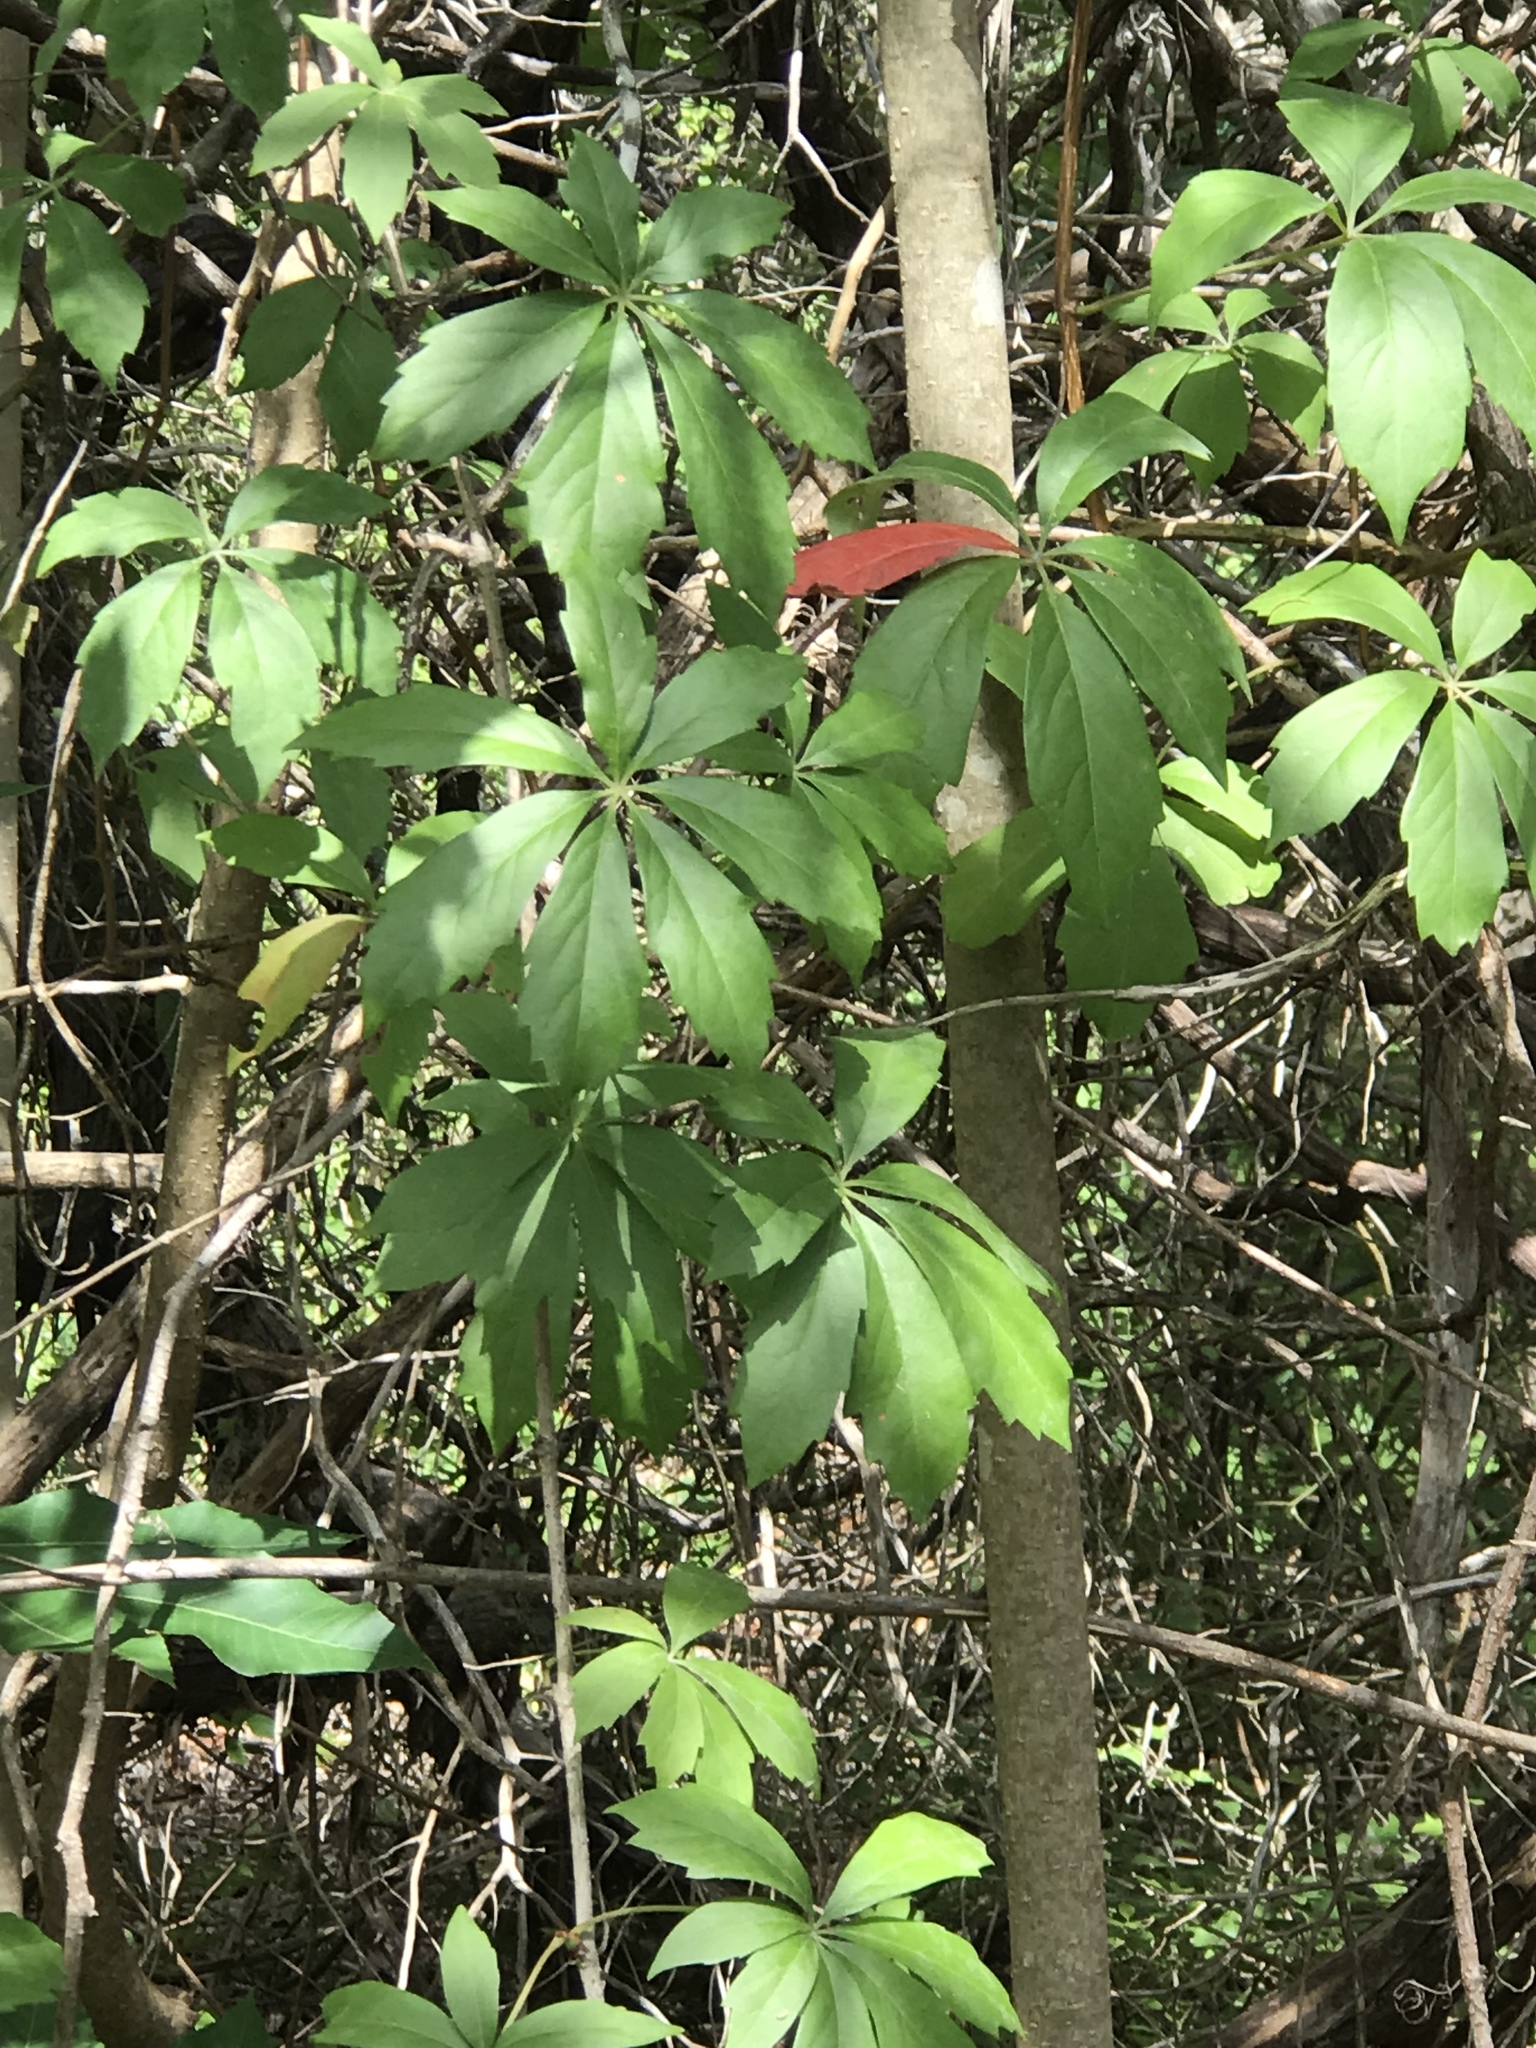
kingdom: Plantae
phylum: Tracheophyta
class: Magnoliopsida
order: Vitales
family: Vitaceae
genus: Parthenocissus
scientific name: Parthenocissus heptaphylla
